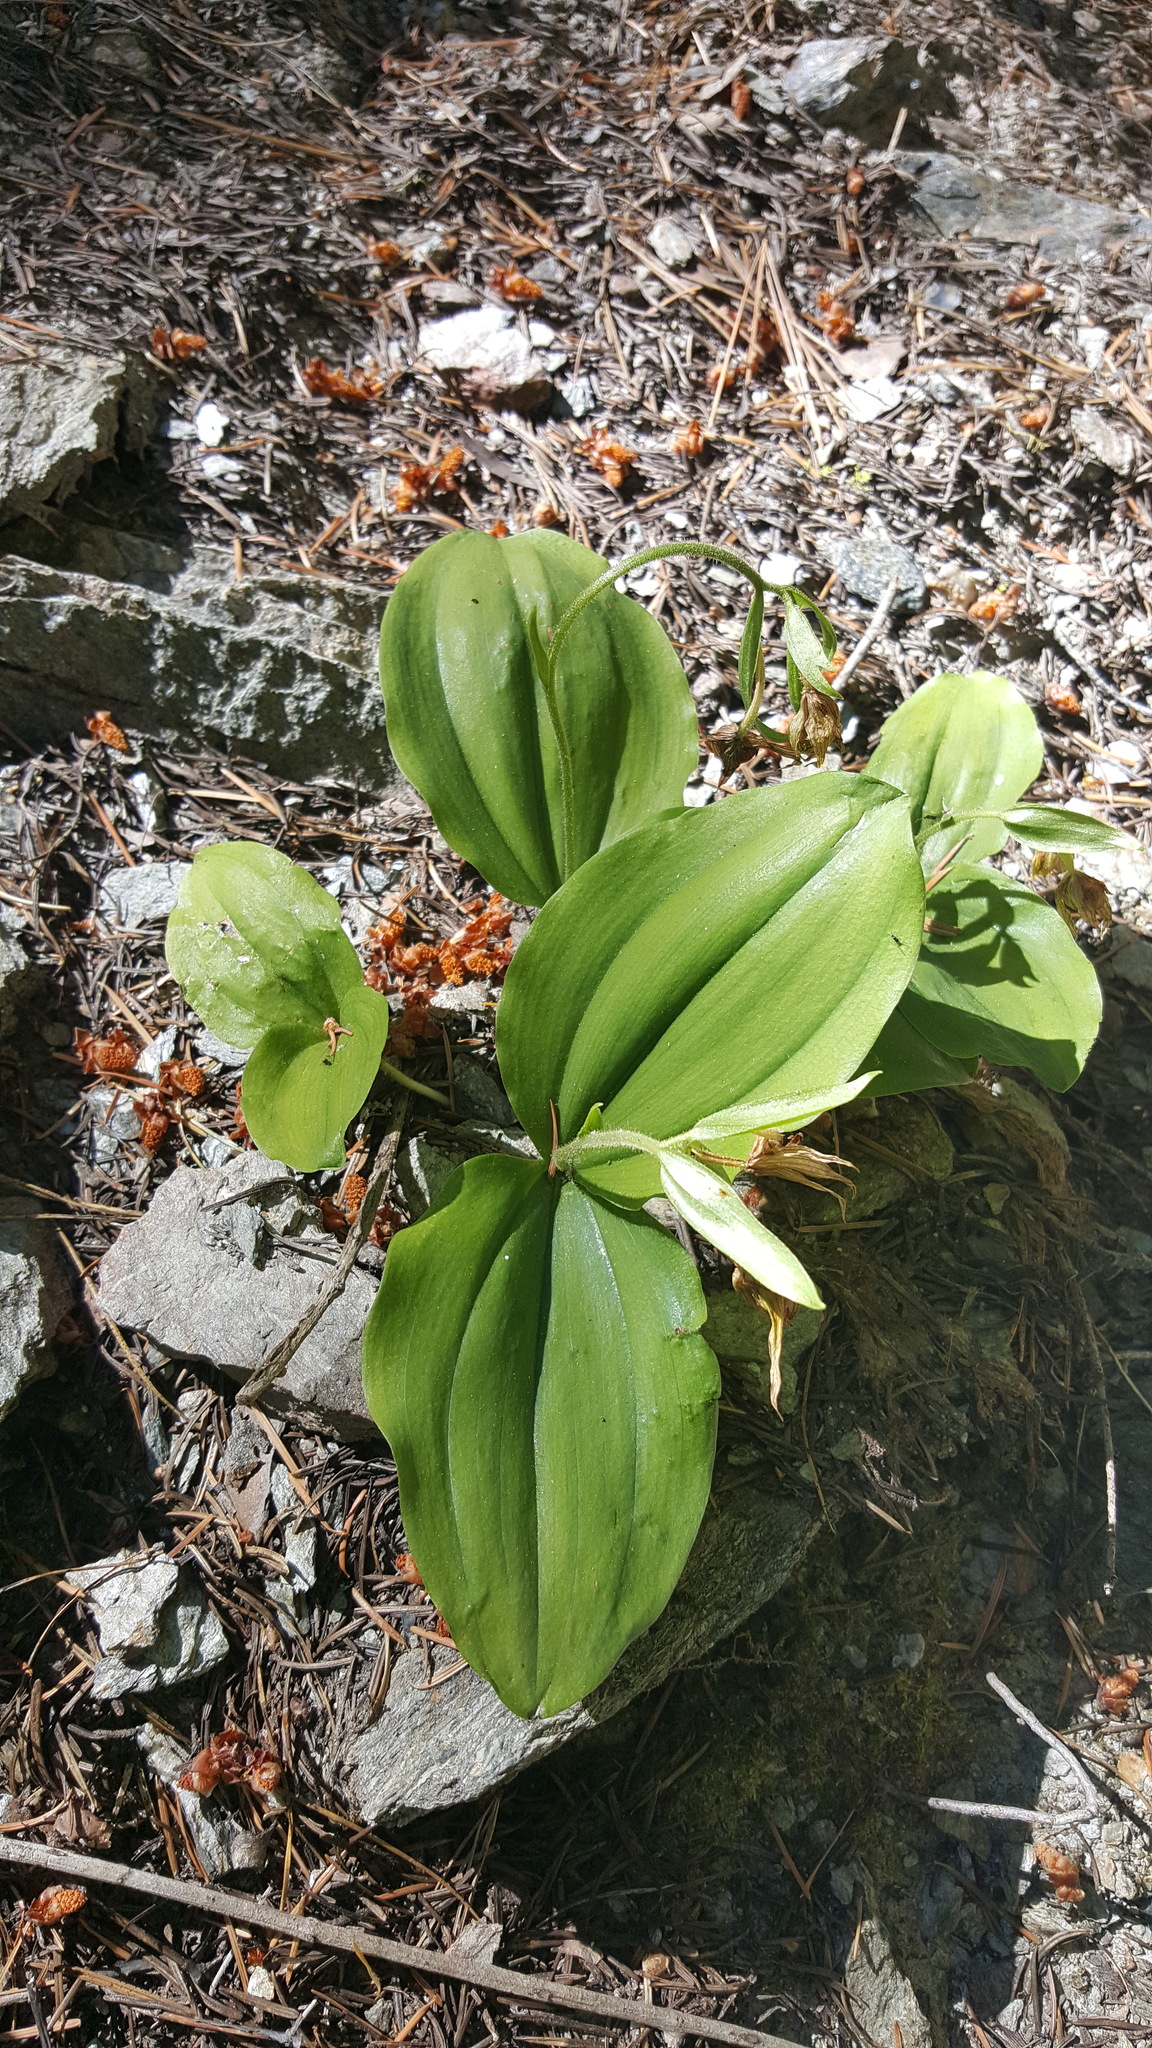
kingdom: Plantae
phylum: Tracheophyta
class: Liliopsida
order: Asparagales
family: Orchidaceae
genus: Cypripedium
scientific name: Cypripedium fasciculatum
